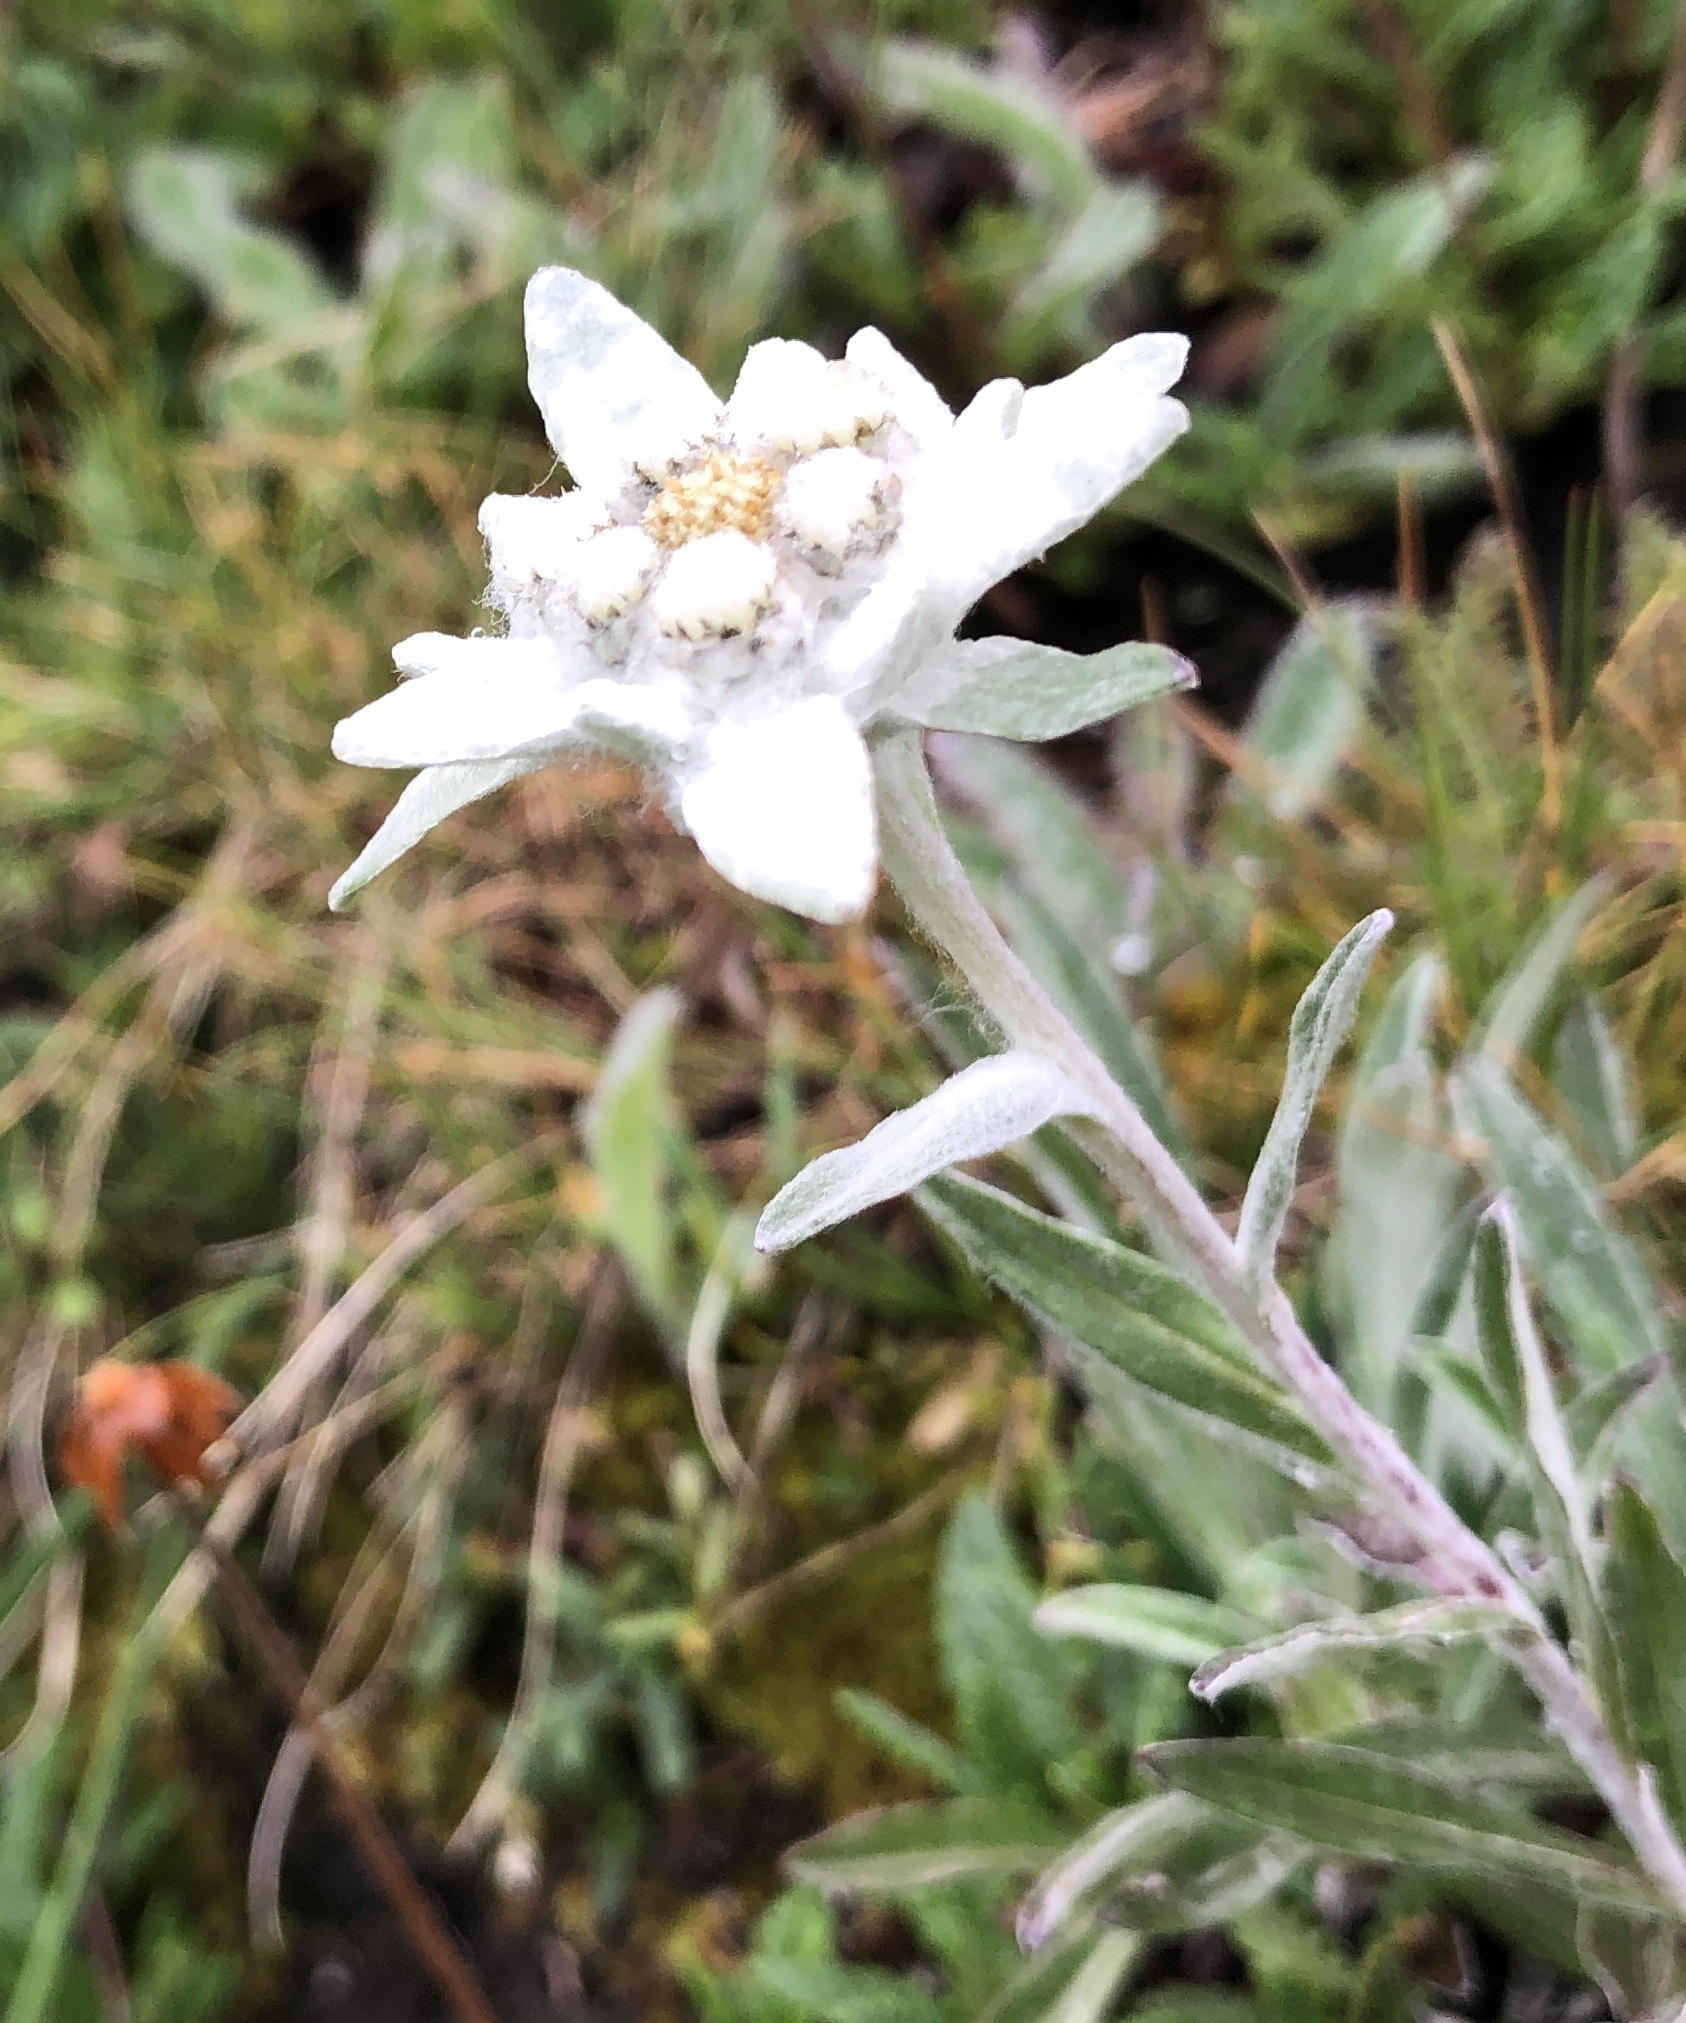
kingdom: Plantae
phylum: Tracheophyta
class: Magnoliopsida
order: Asterales
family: Asteraceae
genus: Leontopodium
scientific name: Leontopodium nivale
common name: Edelweiss
